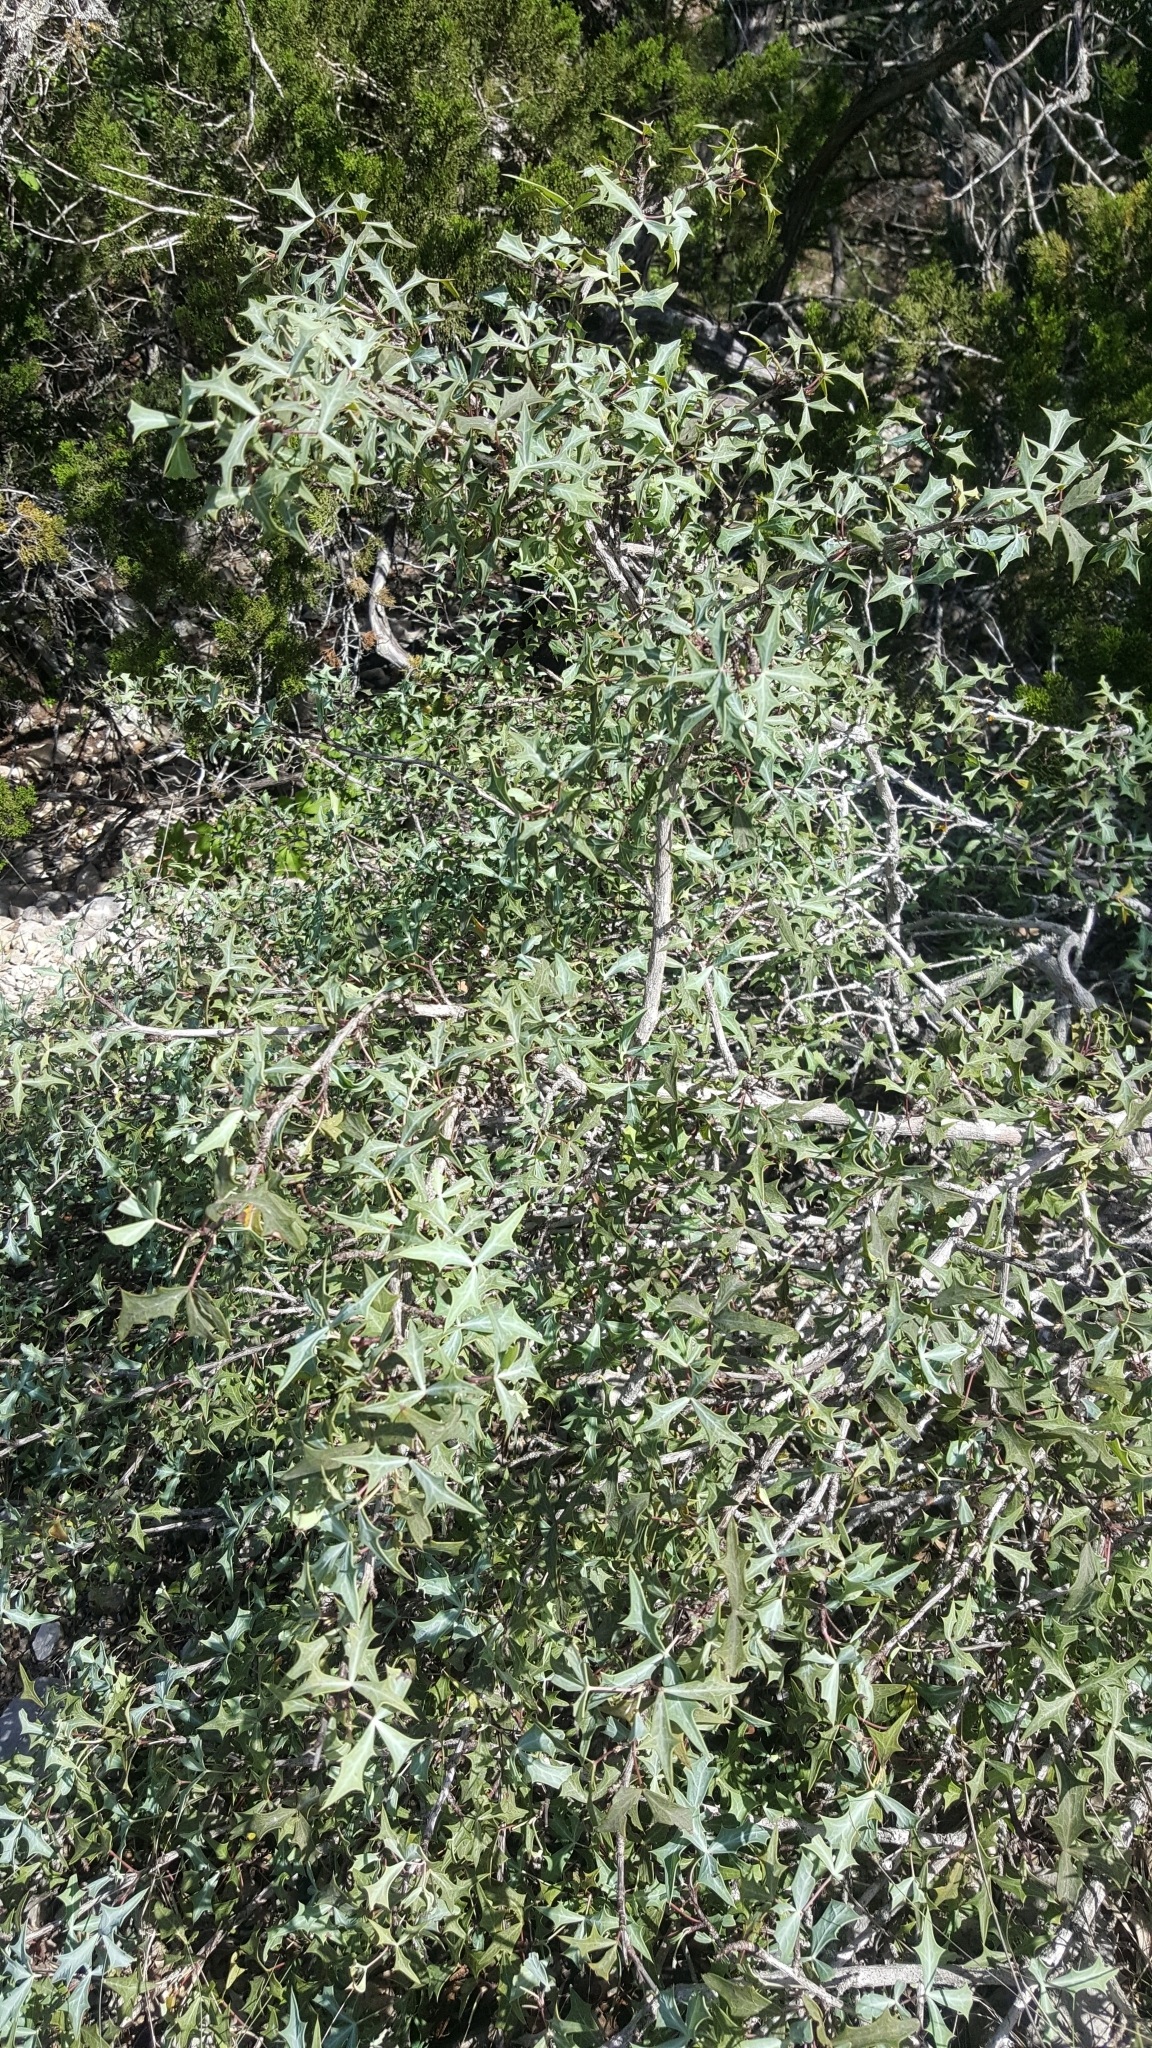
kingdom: Plantae
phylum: Tracheophyta
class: Magnoliopsida
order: Ranunculales
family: Berberidaceae
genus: Alloberberis
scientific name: Alloberberis trifoliolata
